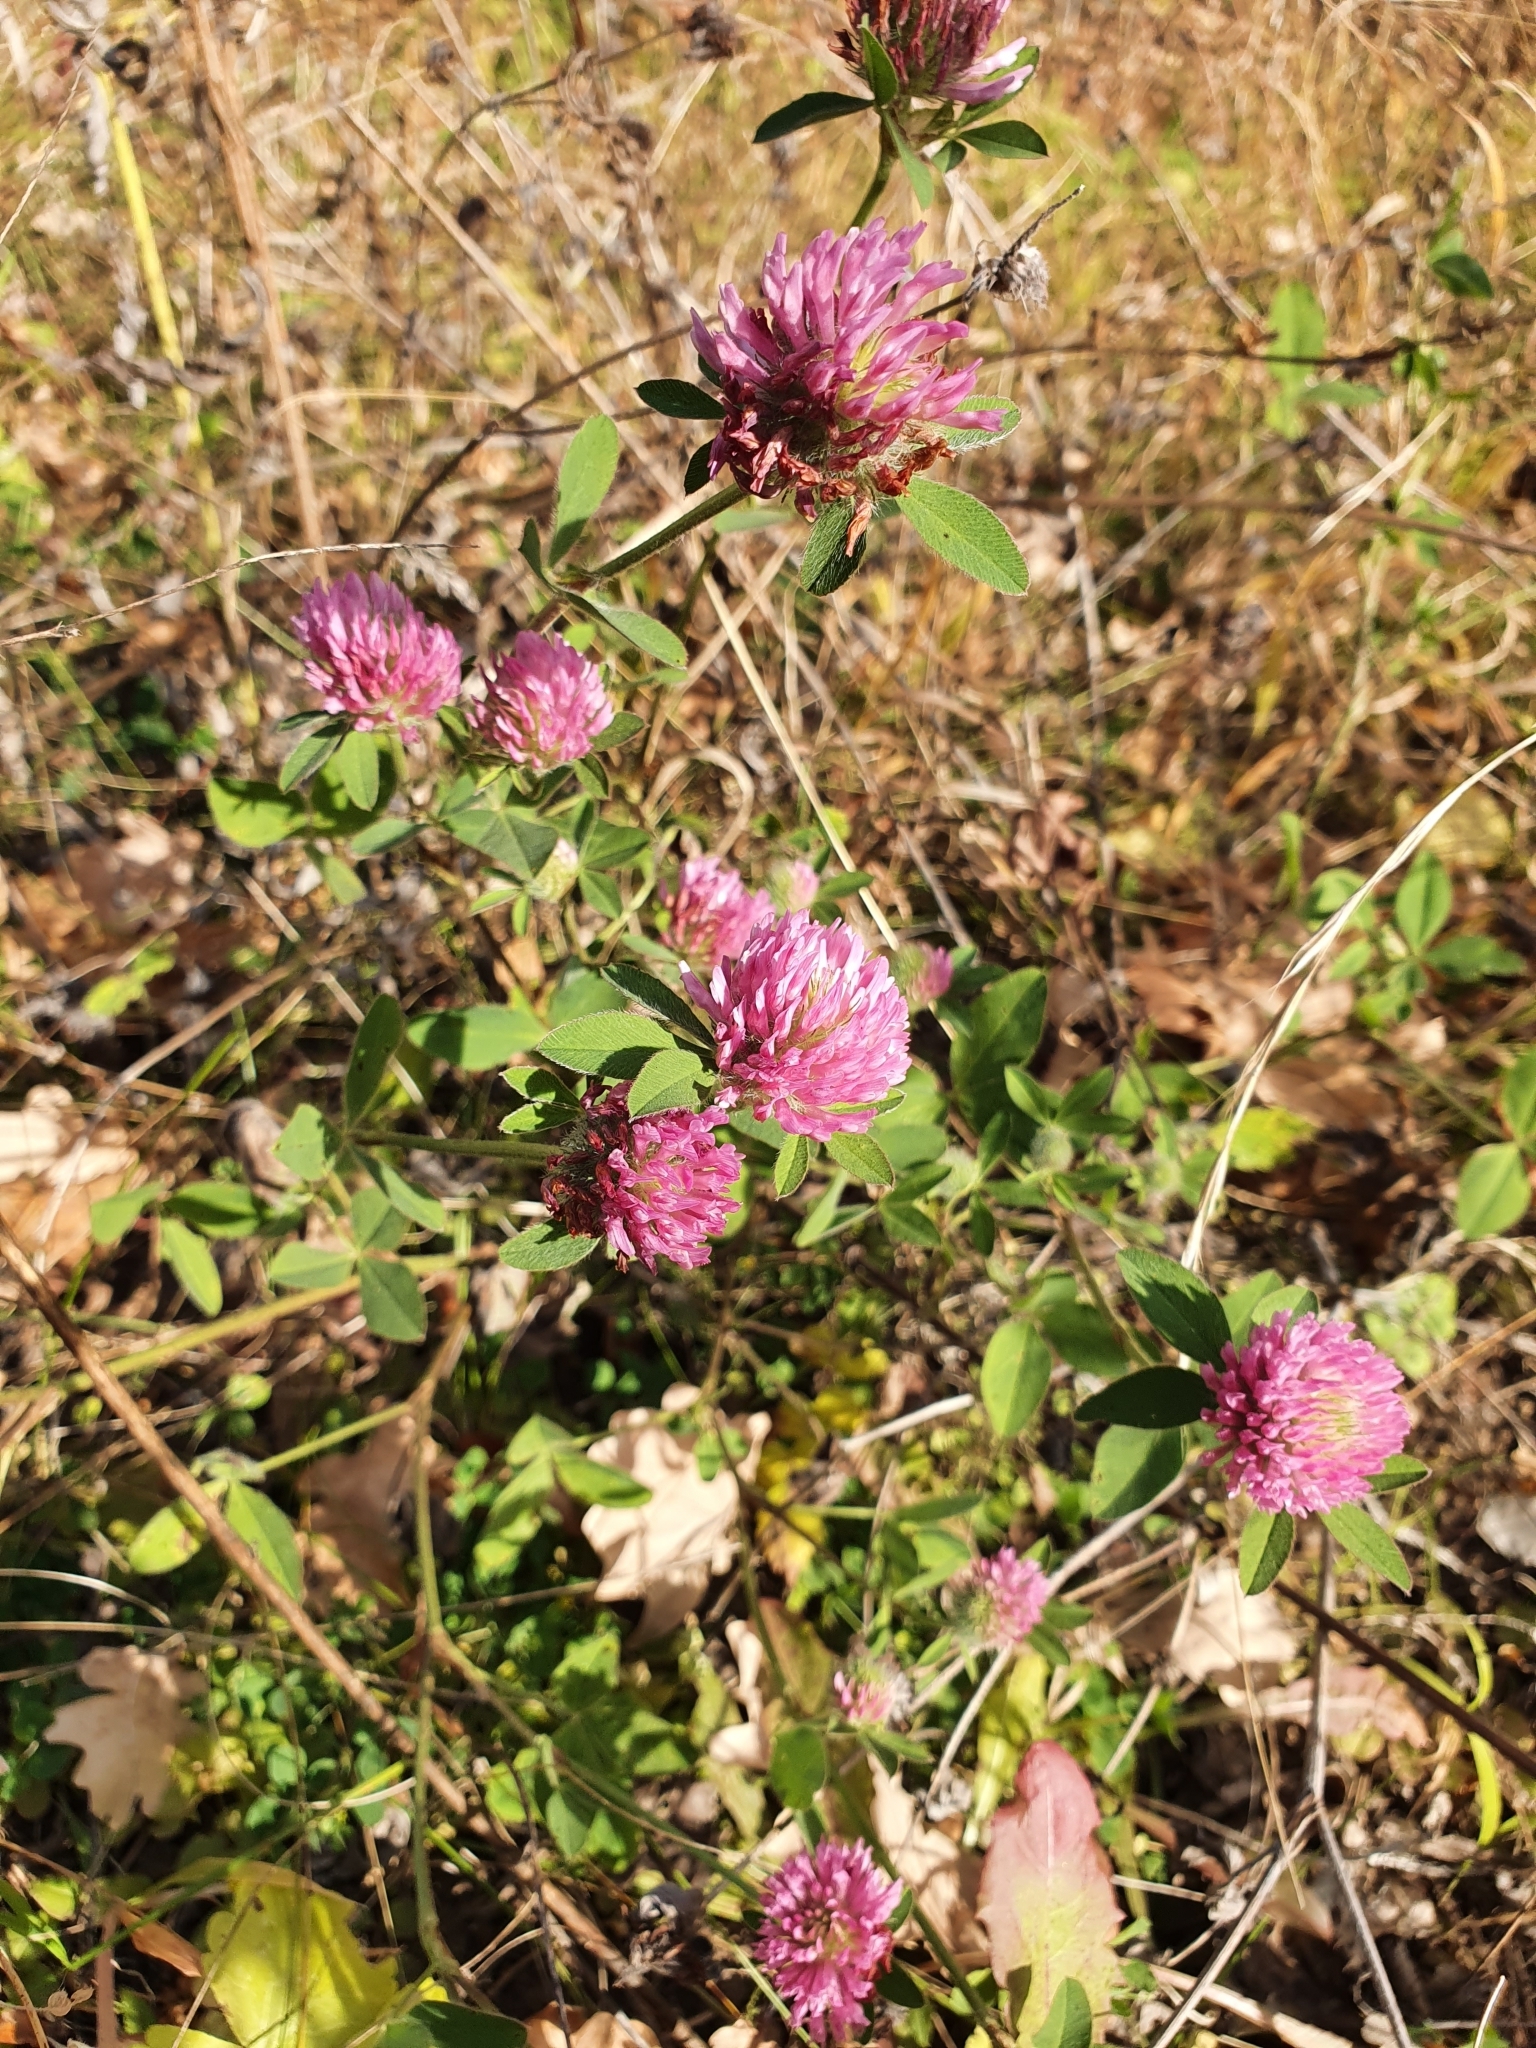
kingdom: Plantae
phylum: Tracheophyta
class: Magnoliopsida
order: Fabales
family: Fabaceae
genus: Trifolium
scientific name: Trifolium pratense
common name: Red clover
